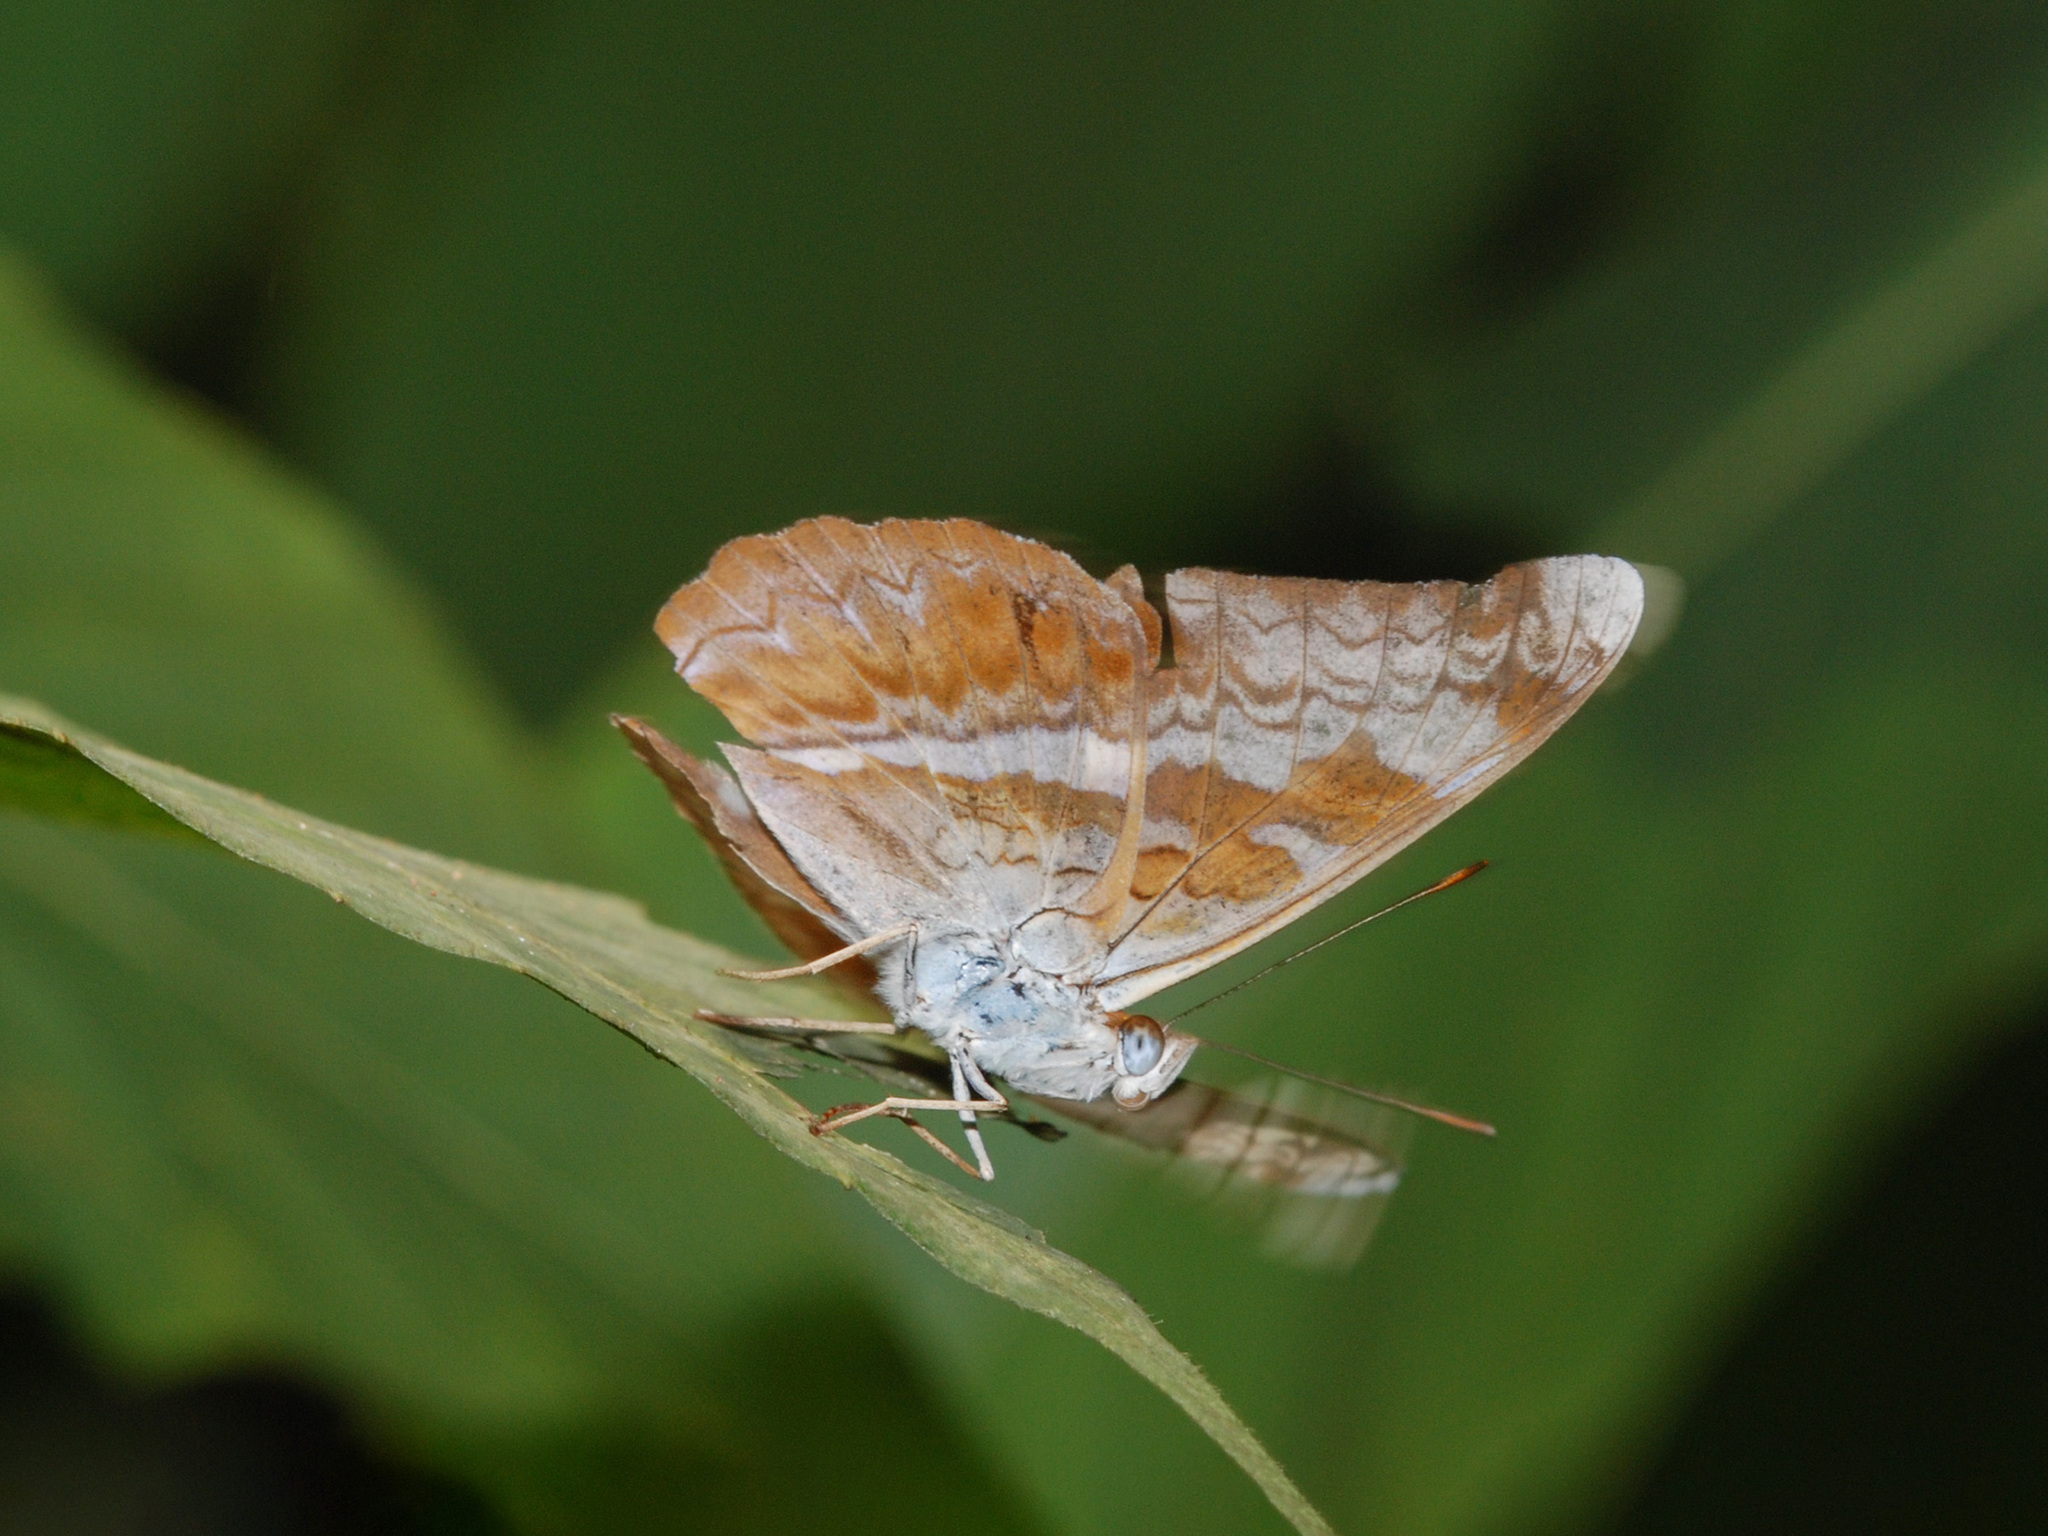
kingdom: Animalia
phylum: Arthropoda
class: Insecta
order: Lepidoptera
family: Nymphalidae
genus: Lebadea
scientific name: Lebadea martha
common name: Knight
